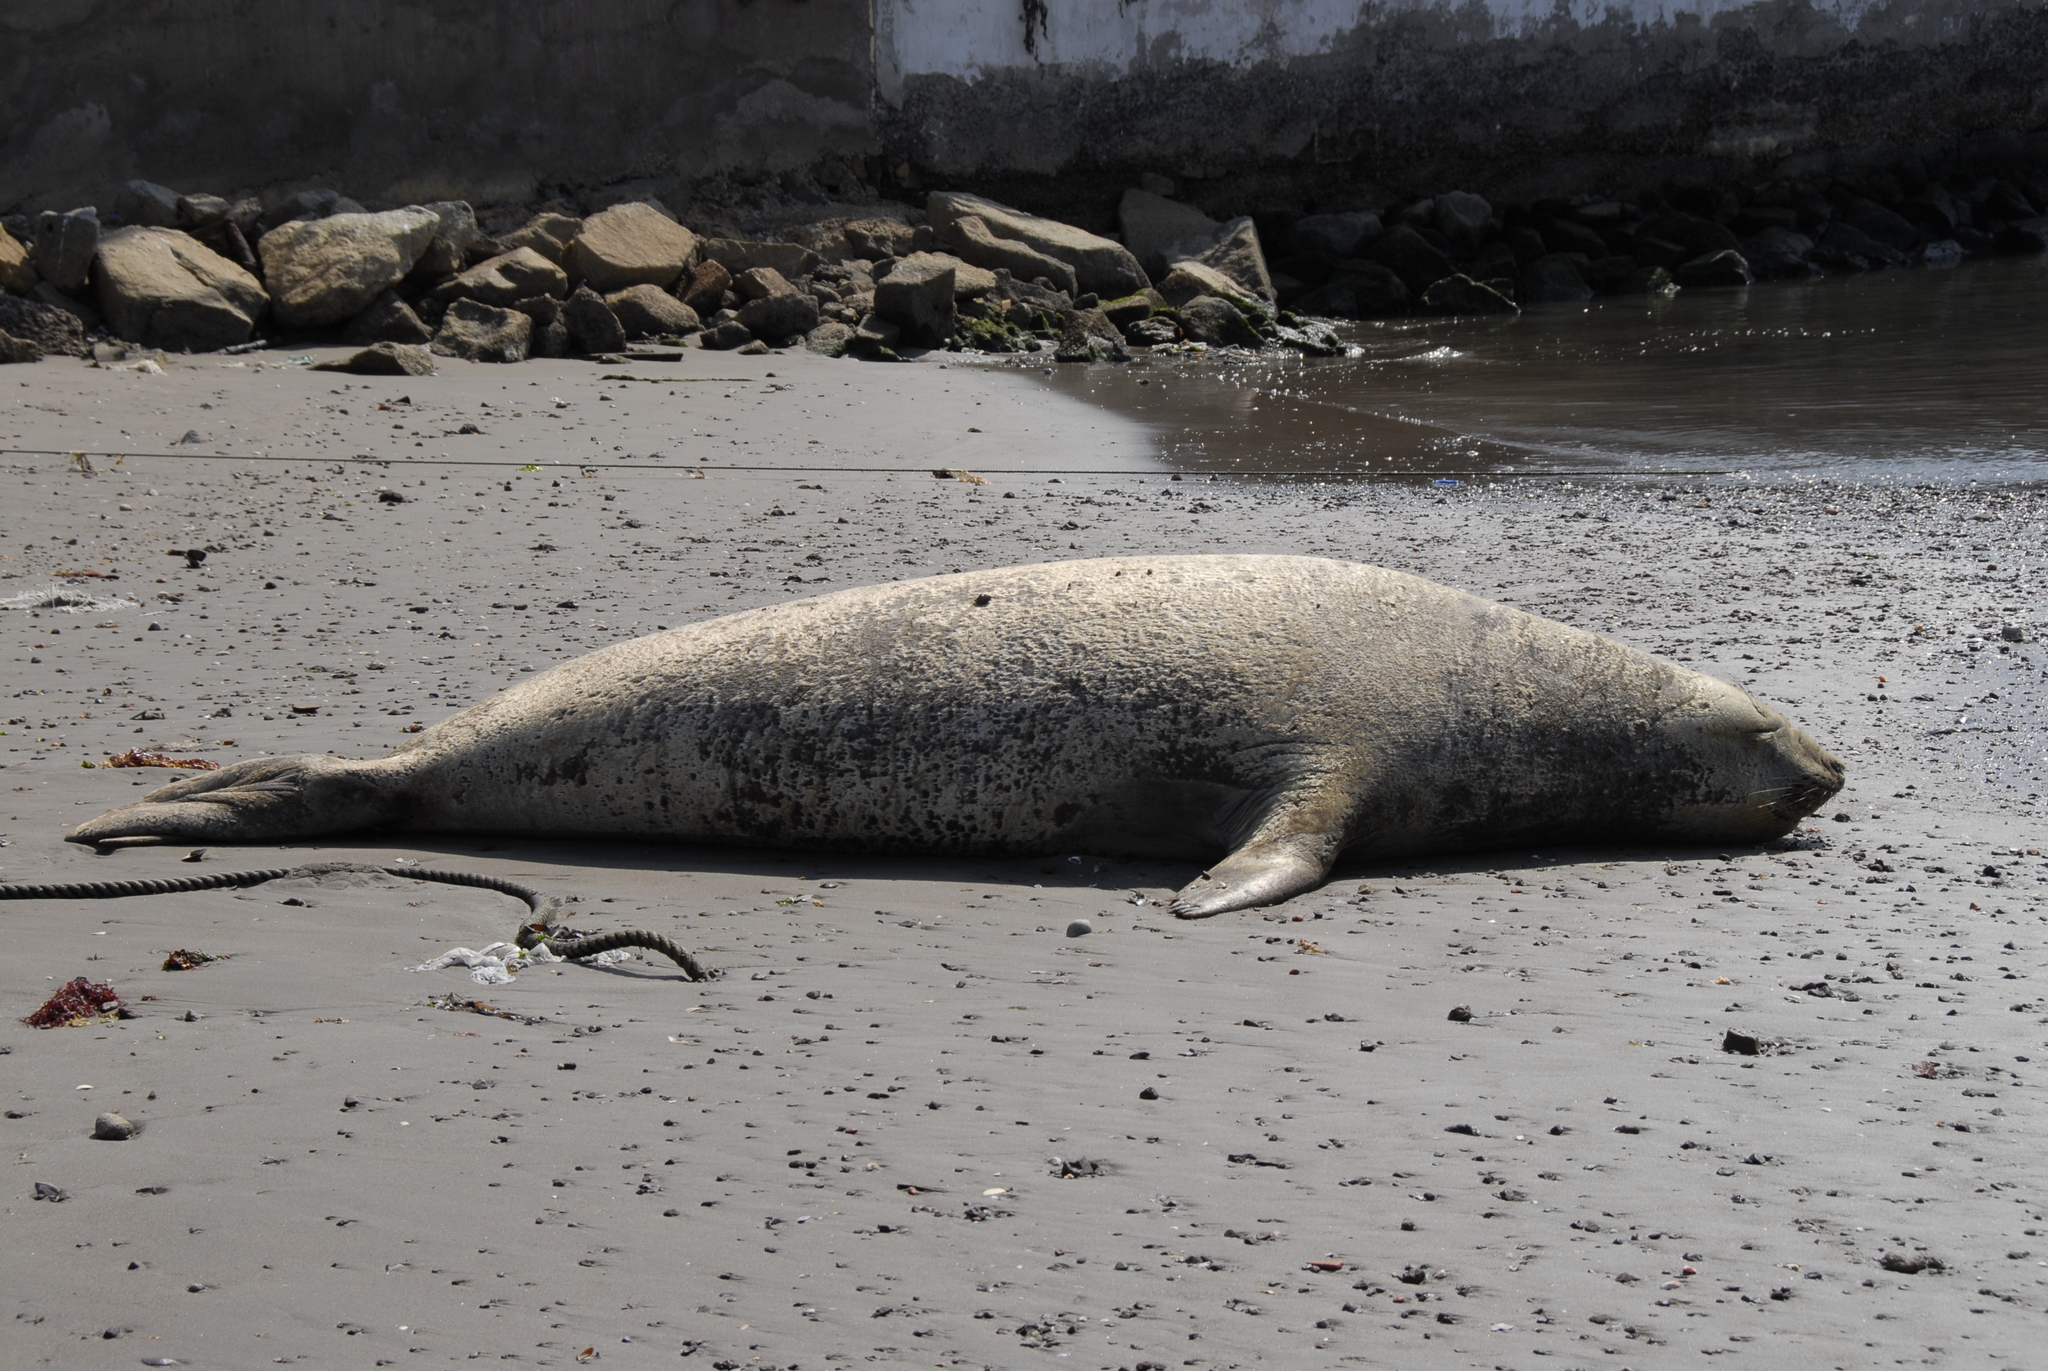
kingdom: Animalia
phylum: Chordata
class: Mammalia
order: Carnivora
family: Phocidae
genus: Mirounga
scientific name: Mirounga leonina
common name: Southern elephant seal
